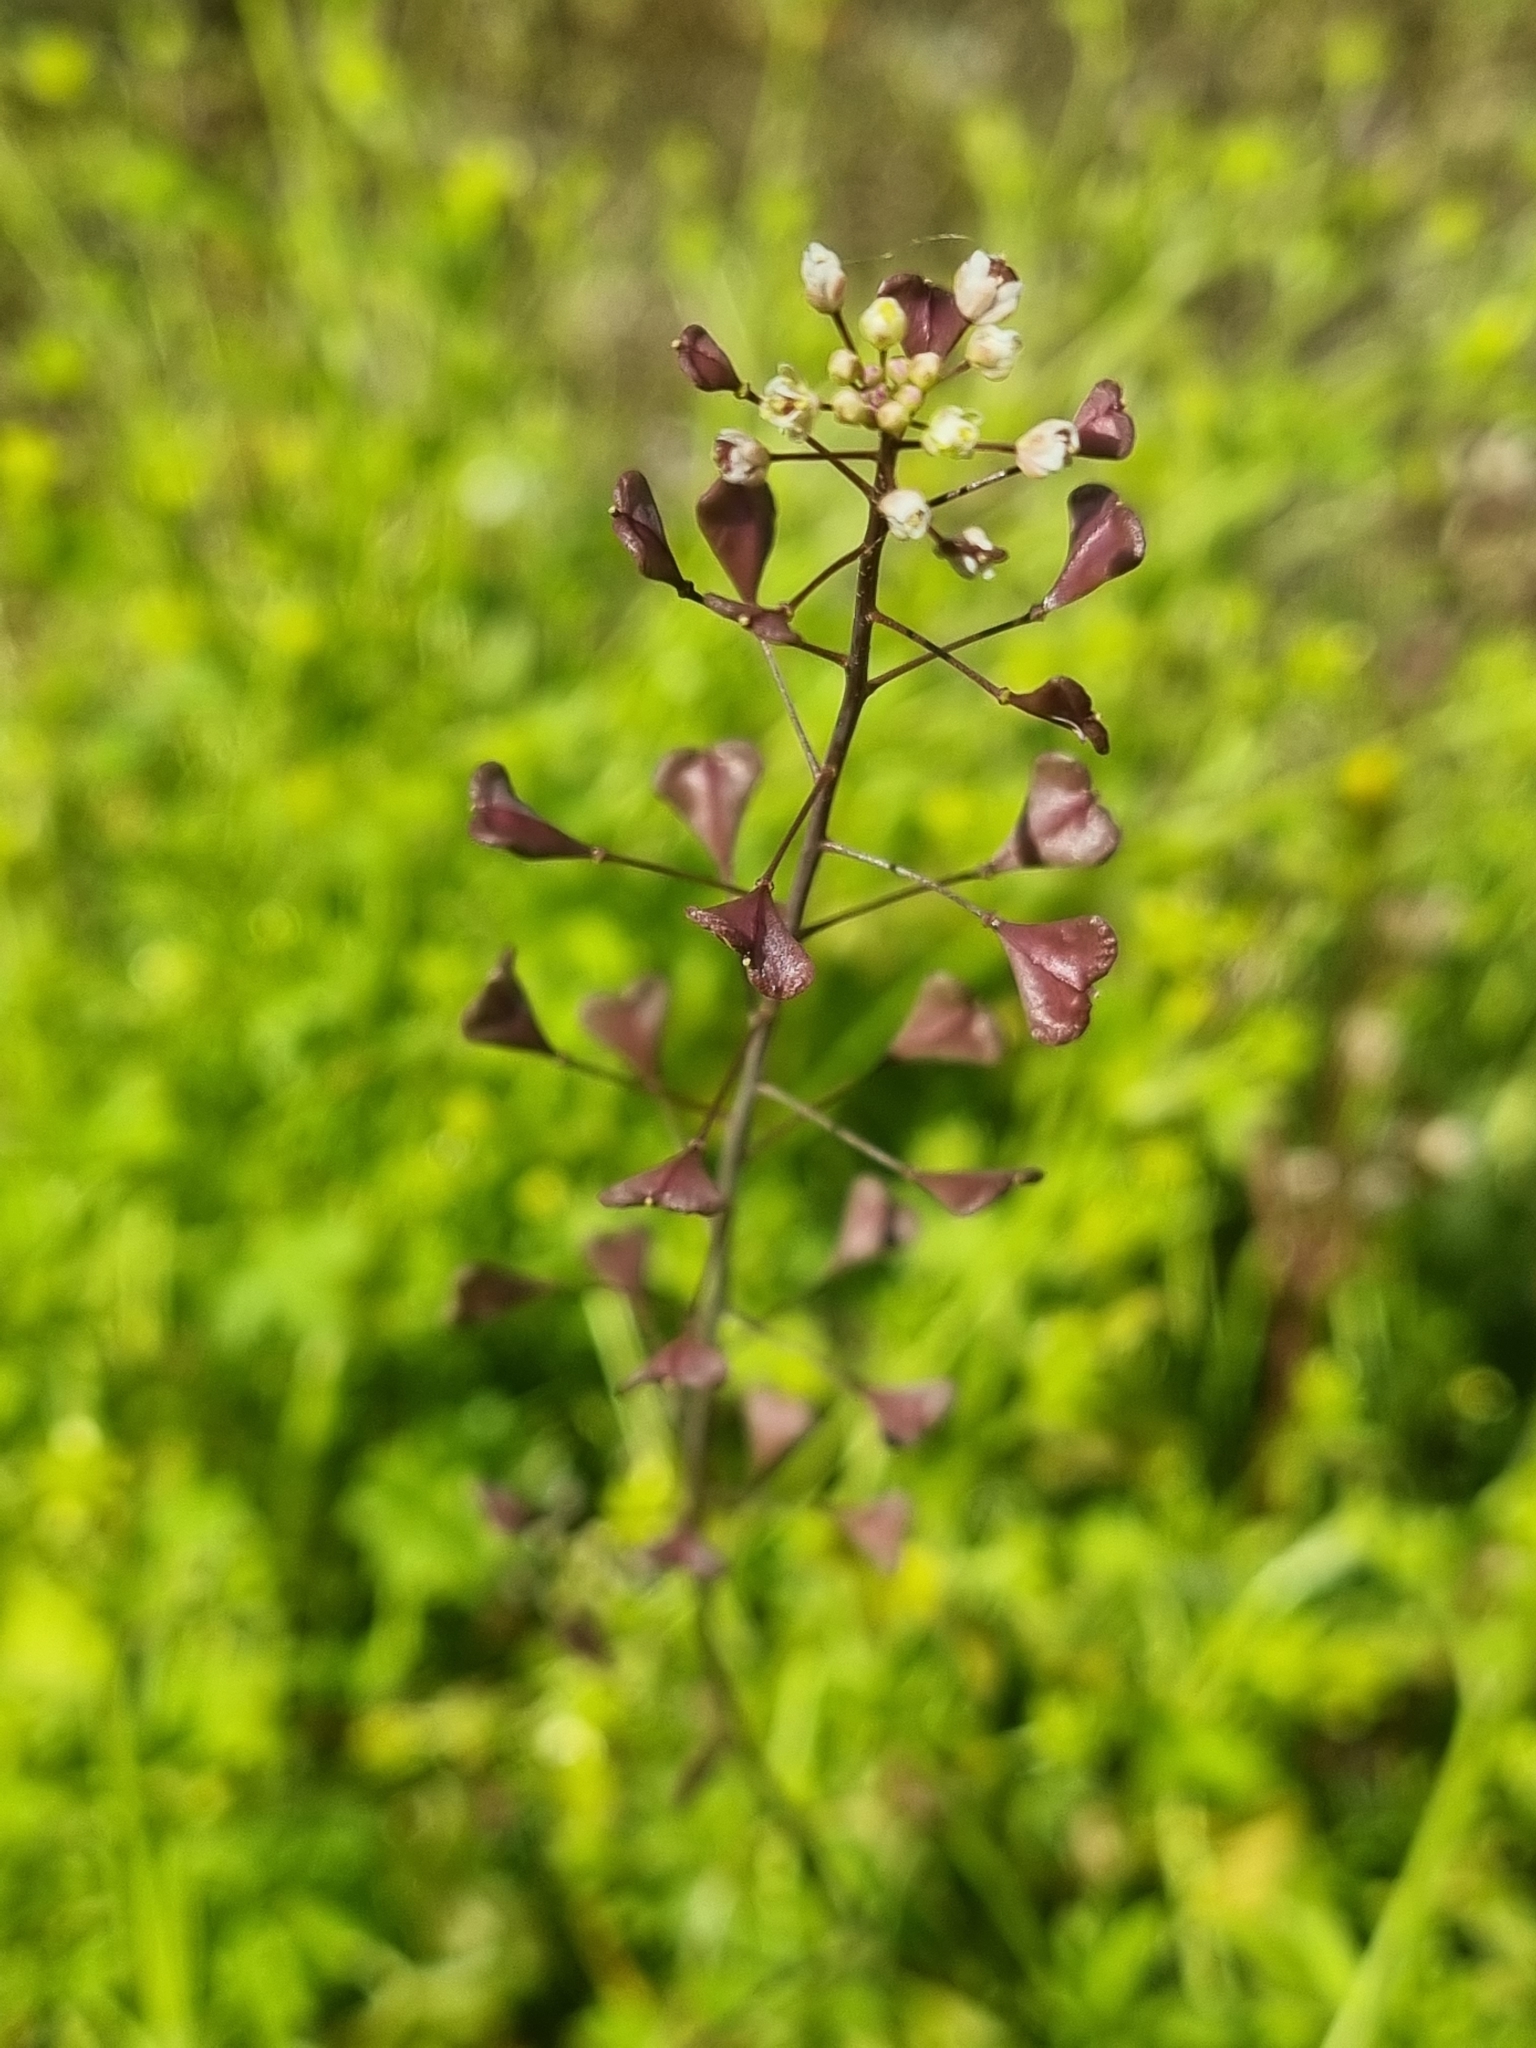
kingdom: Plantae
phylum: Tracheophyta
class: Magnoliopsida
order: Brassicales
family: Brassicaceae
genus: Capsella
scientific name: Capsella bursa-pastoris
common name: Shepherd's purse
